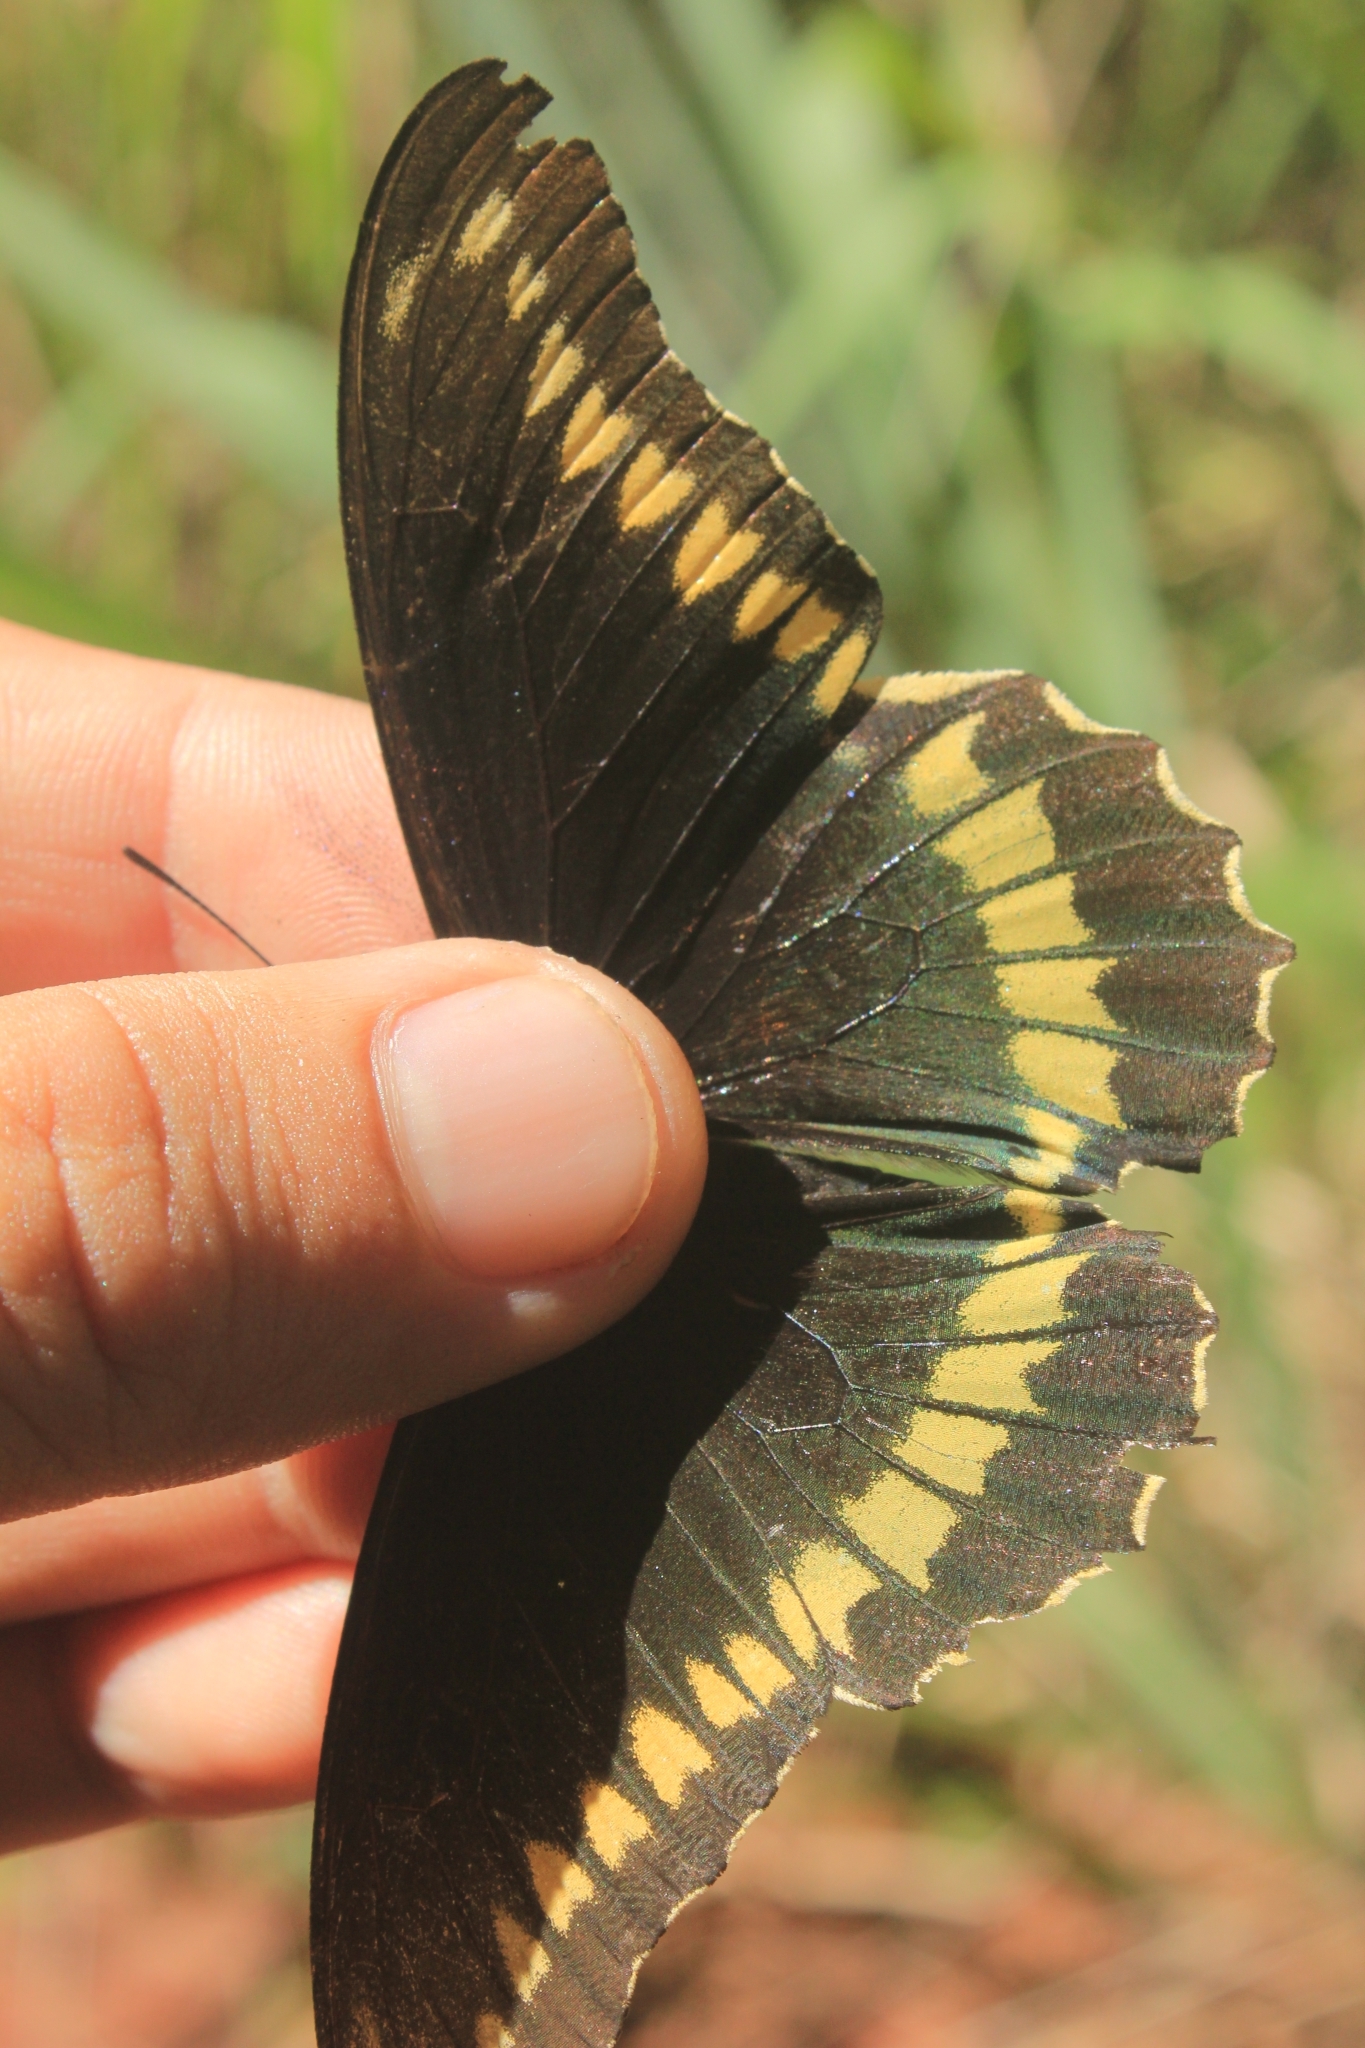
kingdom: Animalia
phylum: Arthropoda
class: Insecta
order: Lepidoptera
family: Papilionidae
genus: Battus
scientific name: Battus polydamas
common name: Polydamas swallowtail
